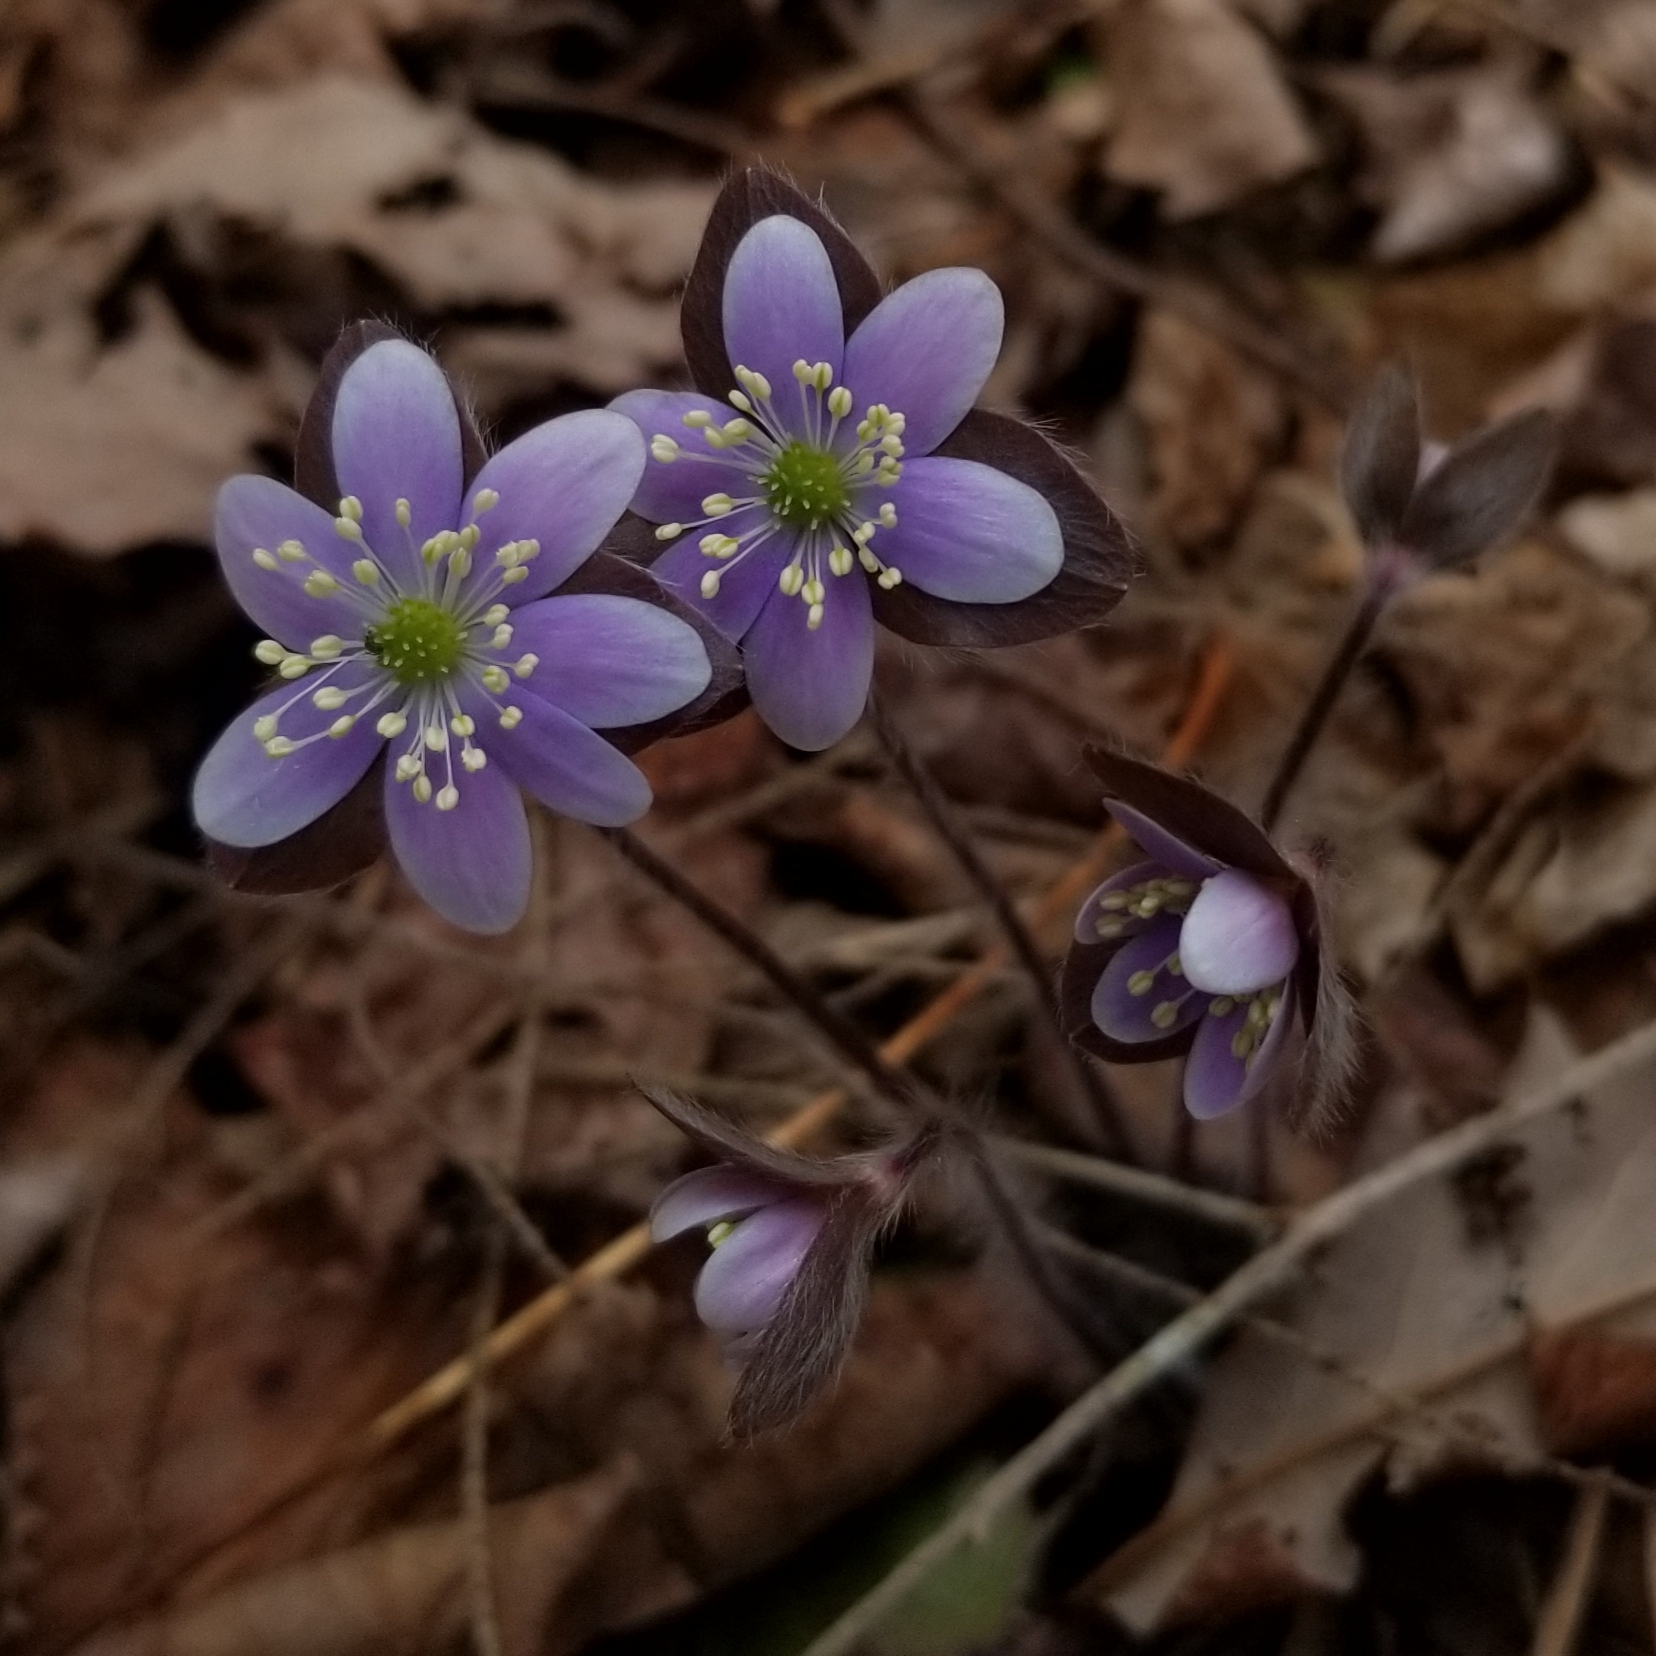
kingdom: Plantae
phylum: Tracheophyta
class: Magnoliopsida
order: Ranunculales
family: Ranunculaceae
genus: Hepatica
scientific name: Hepatica americana
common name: American hepatica
